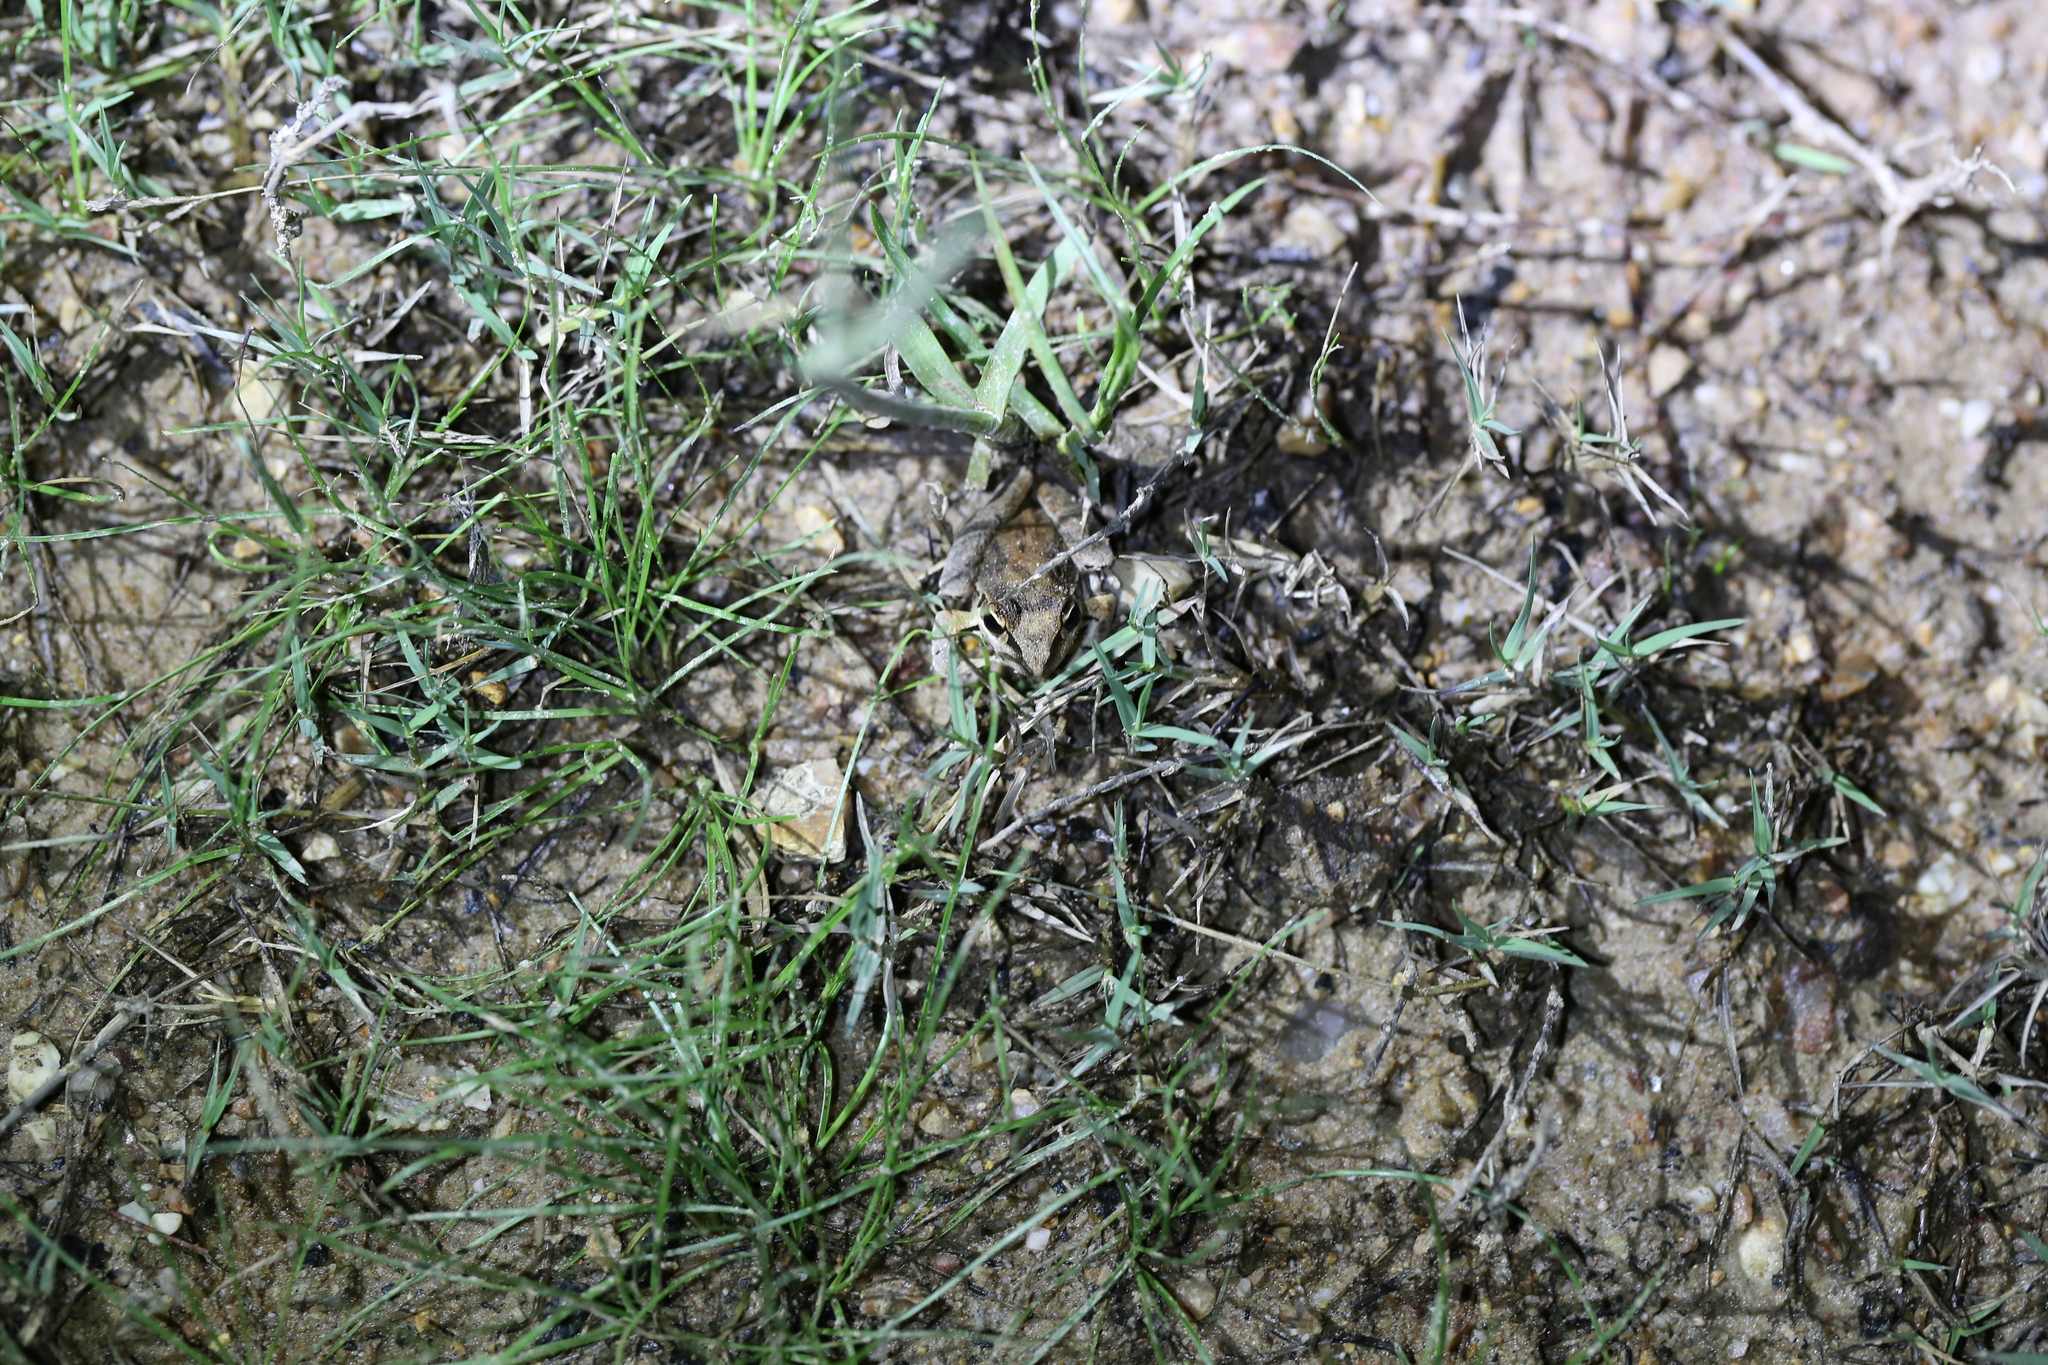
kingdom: Animalia
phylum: Chordata
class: Amphibia
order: Anura
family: Pelodryadidae
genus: Litoria
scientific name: Litoria latopalmata
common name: Broad-palmed rocket frog
